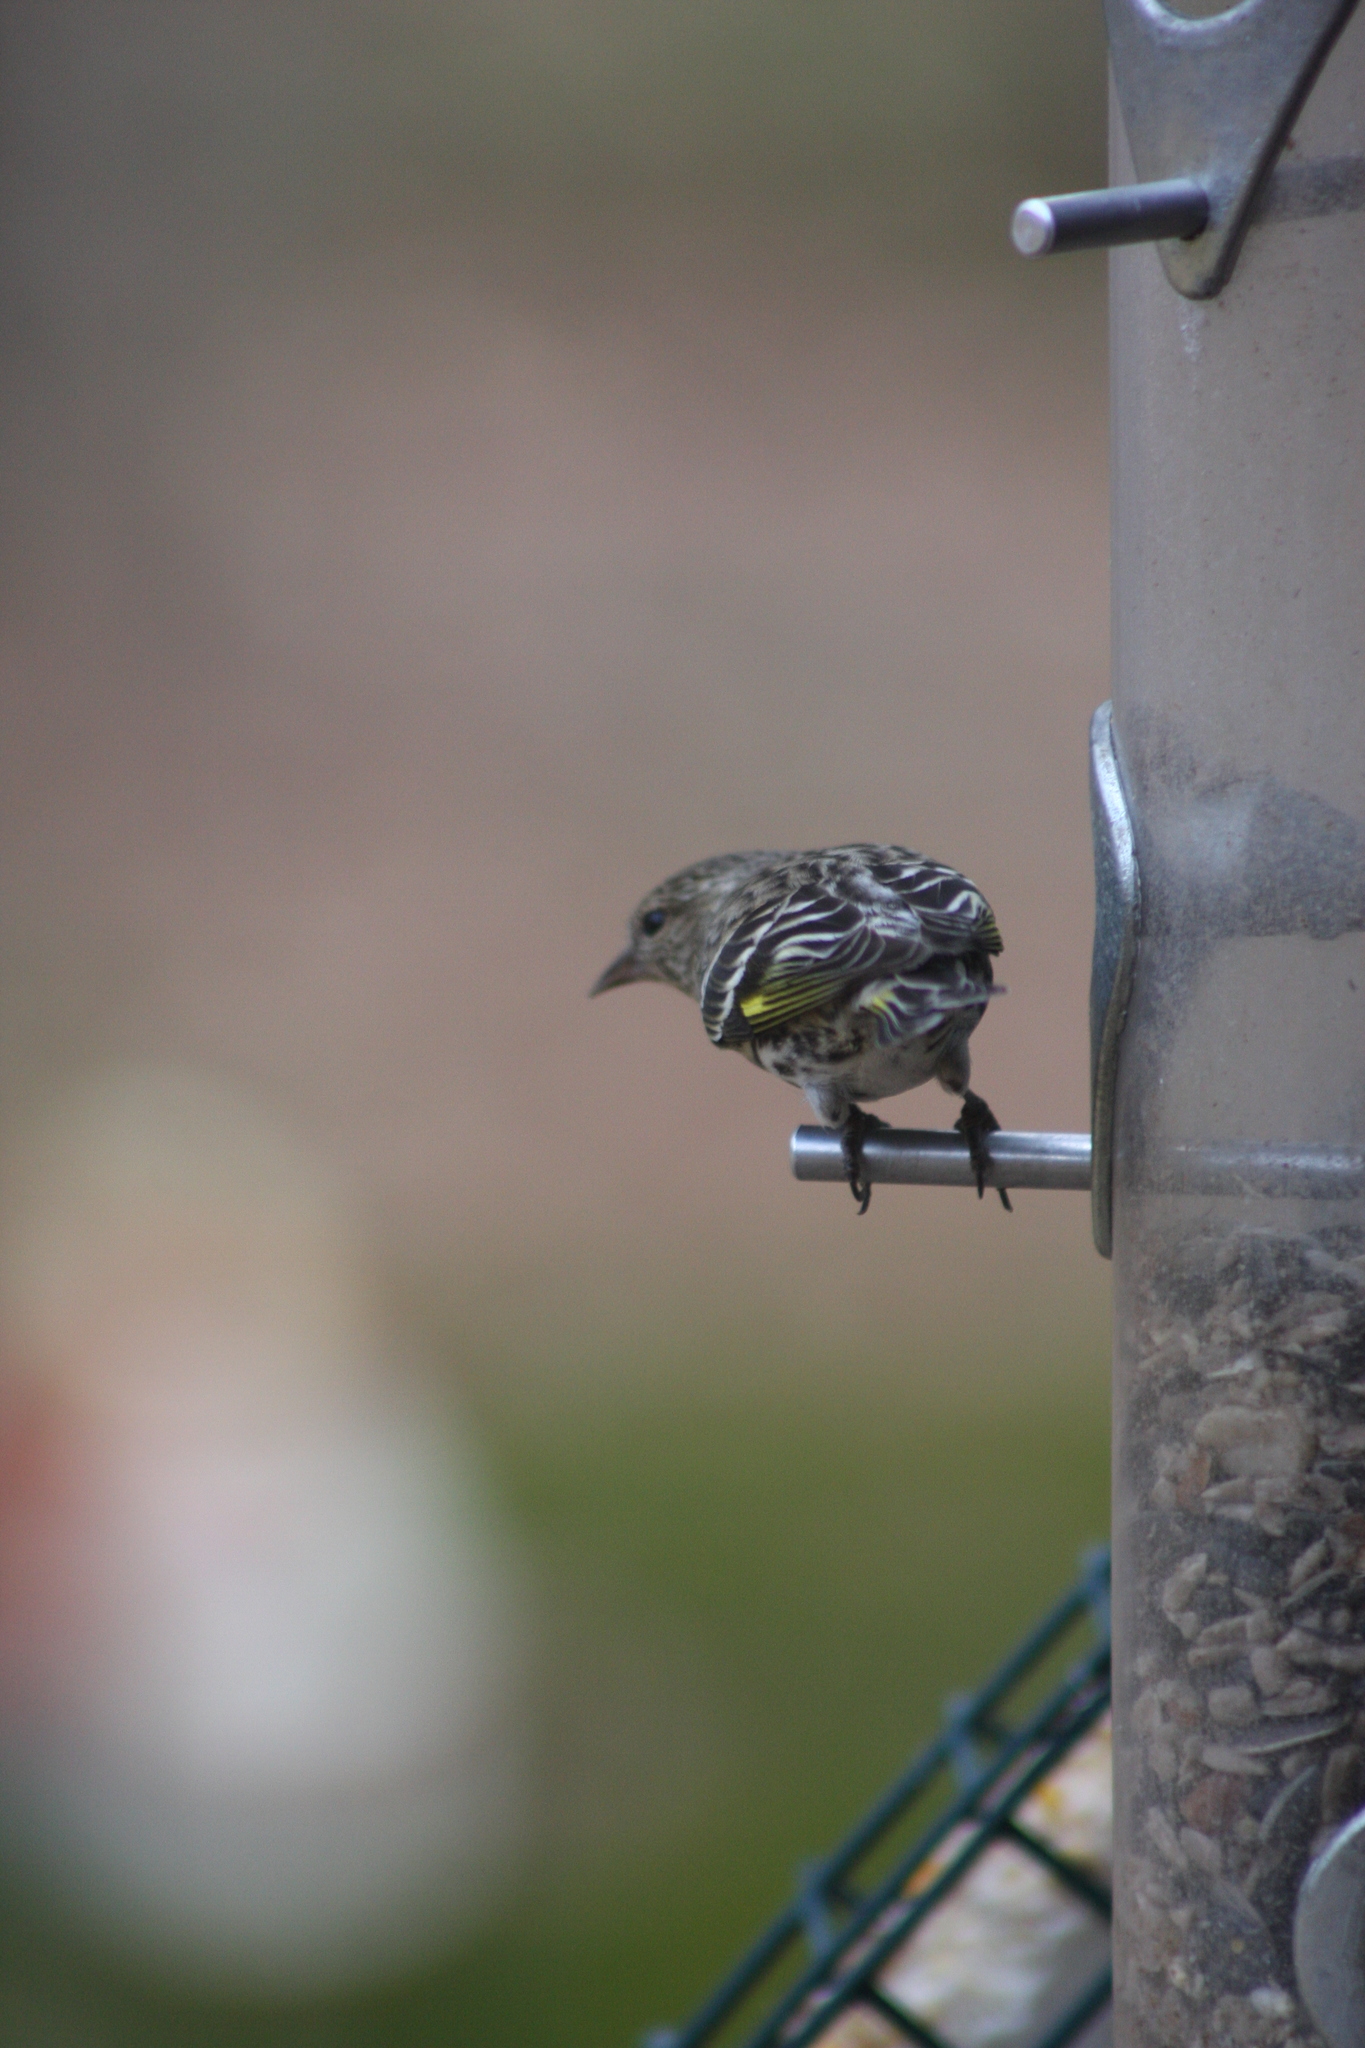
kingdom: Animalia
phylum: Chordata
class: Aves
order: Passeriformes
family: Fringillidae
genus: Spinus
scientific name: Spinus pinus
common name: Pine siskin
